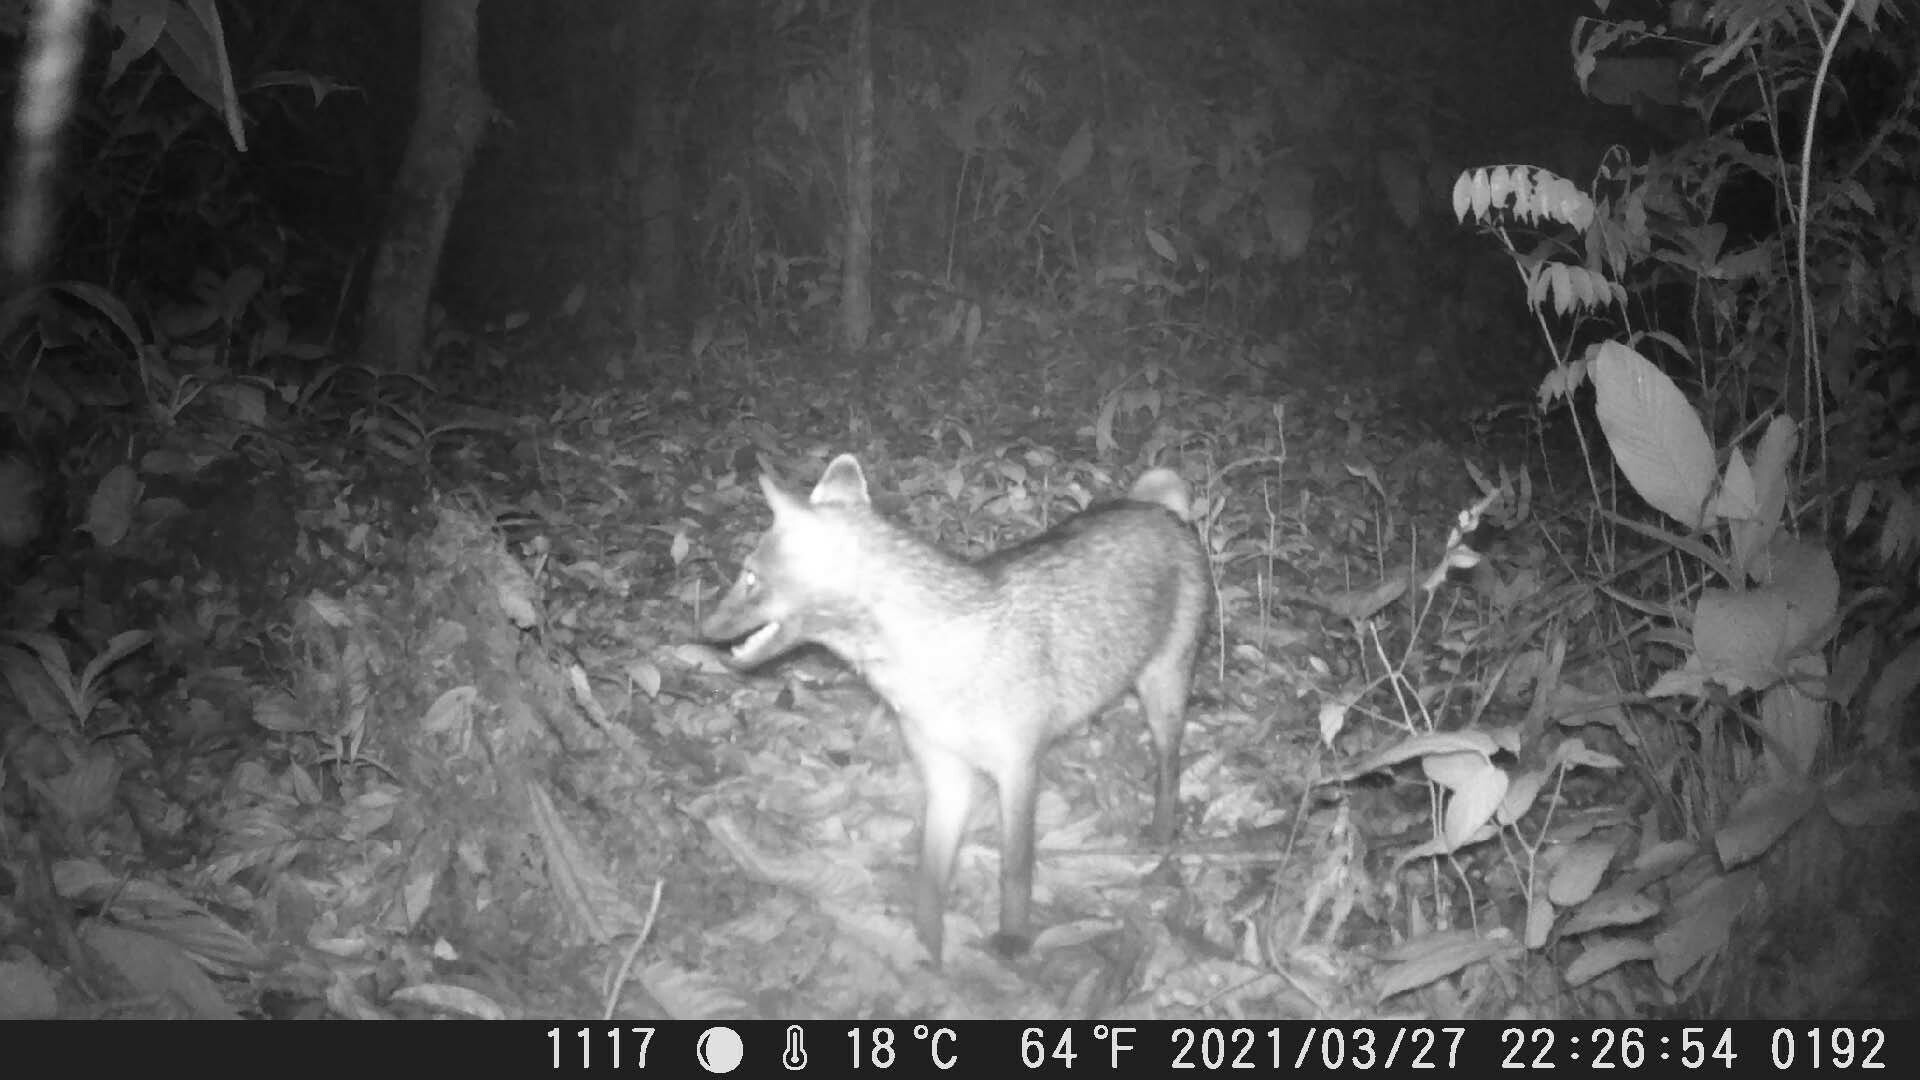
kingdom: Animalia
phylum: Chordata
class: Mammalia
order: Carnivora
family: Canidae
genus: Cerdocyon
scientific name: Cerdocyon thous
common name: Crab-eating fox
